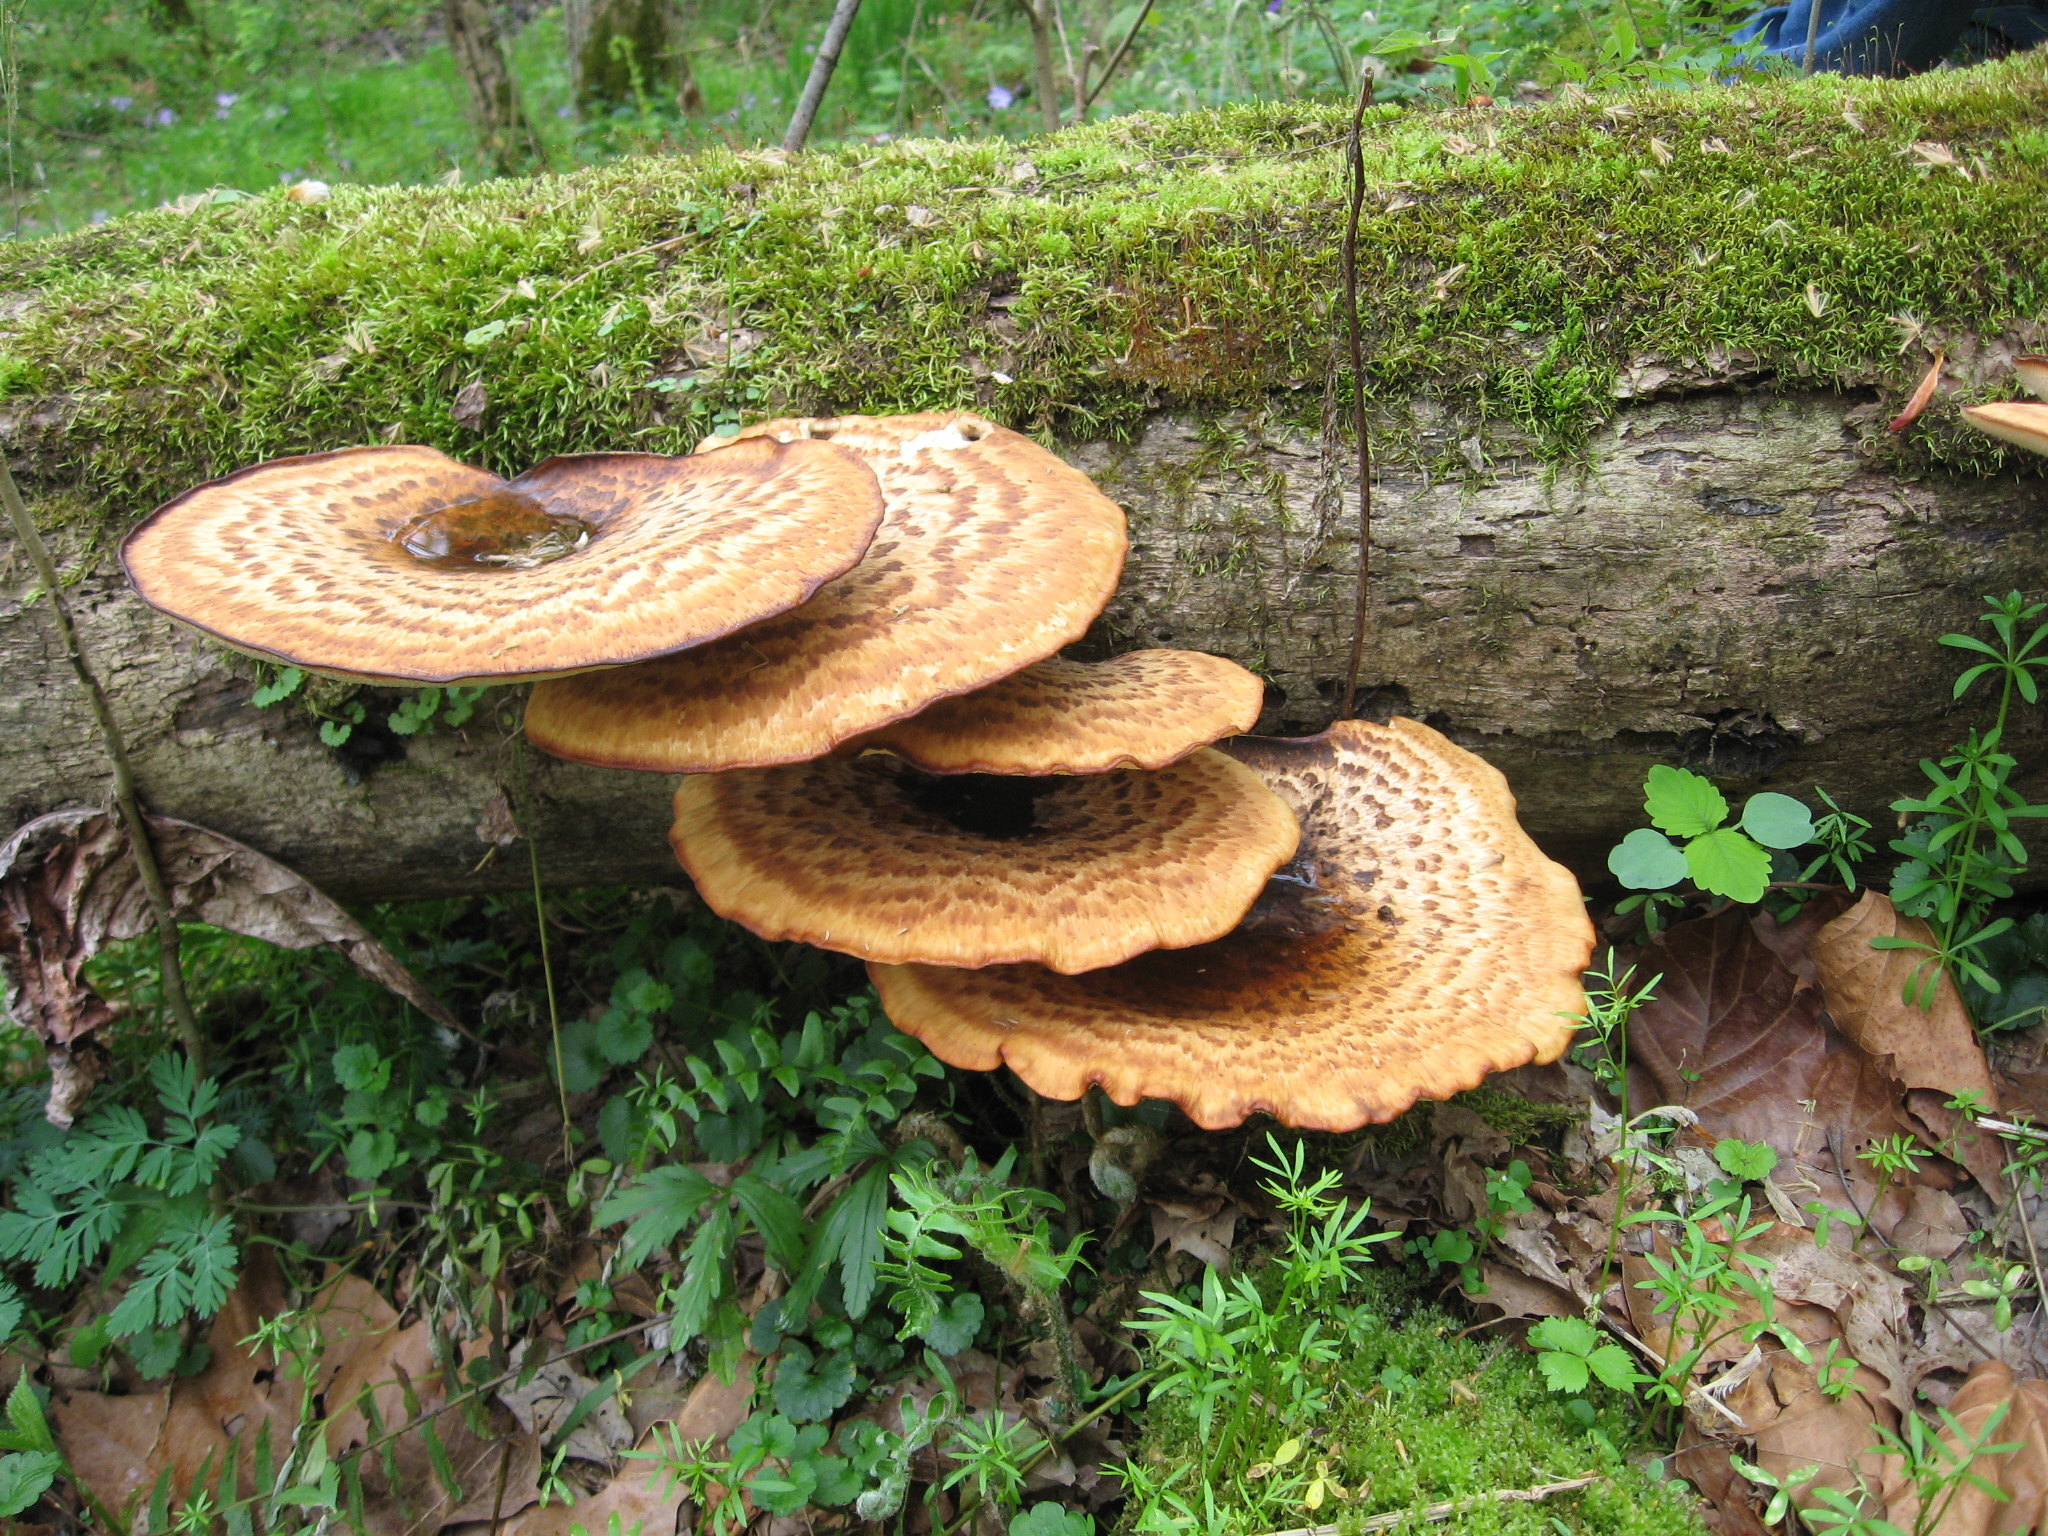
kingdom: Fungi
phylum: Basidiomycota
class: Agaricomycetes
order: Polyporales
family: Polyporaceae
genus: Cerioporus
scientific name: Cerioporus squamosus
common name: Dryad's saddle
